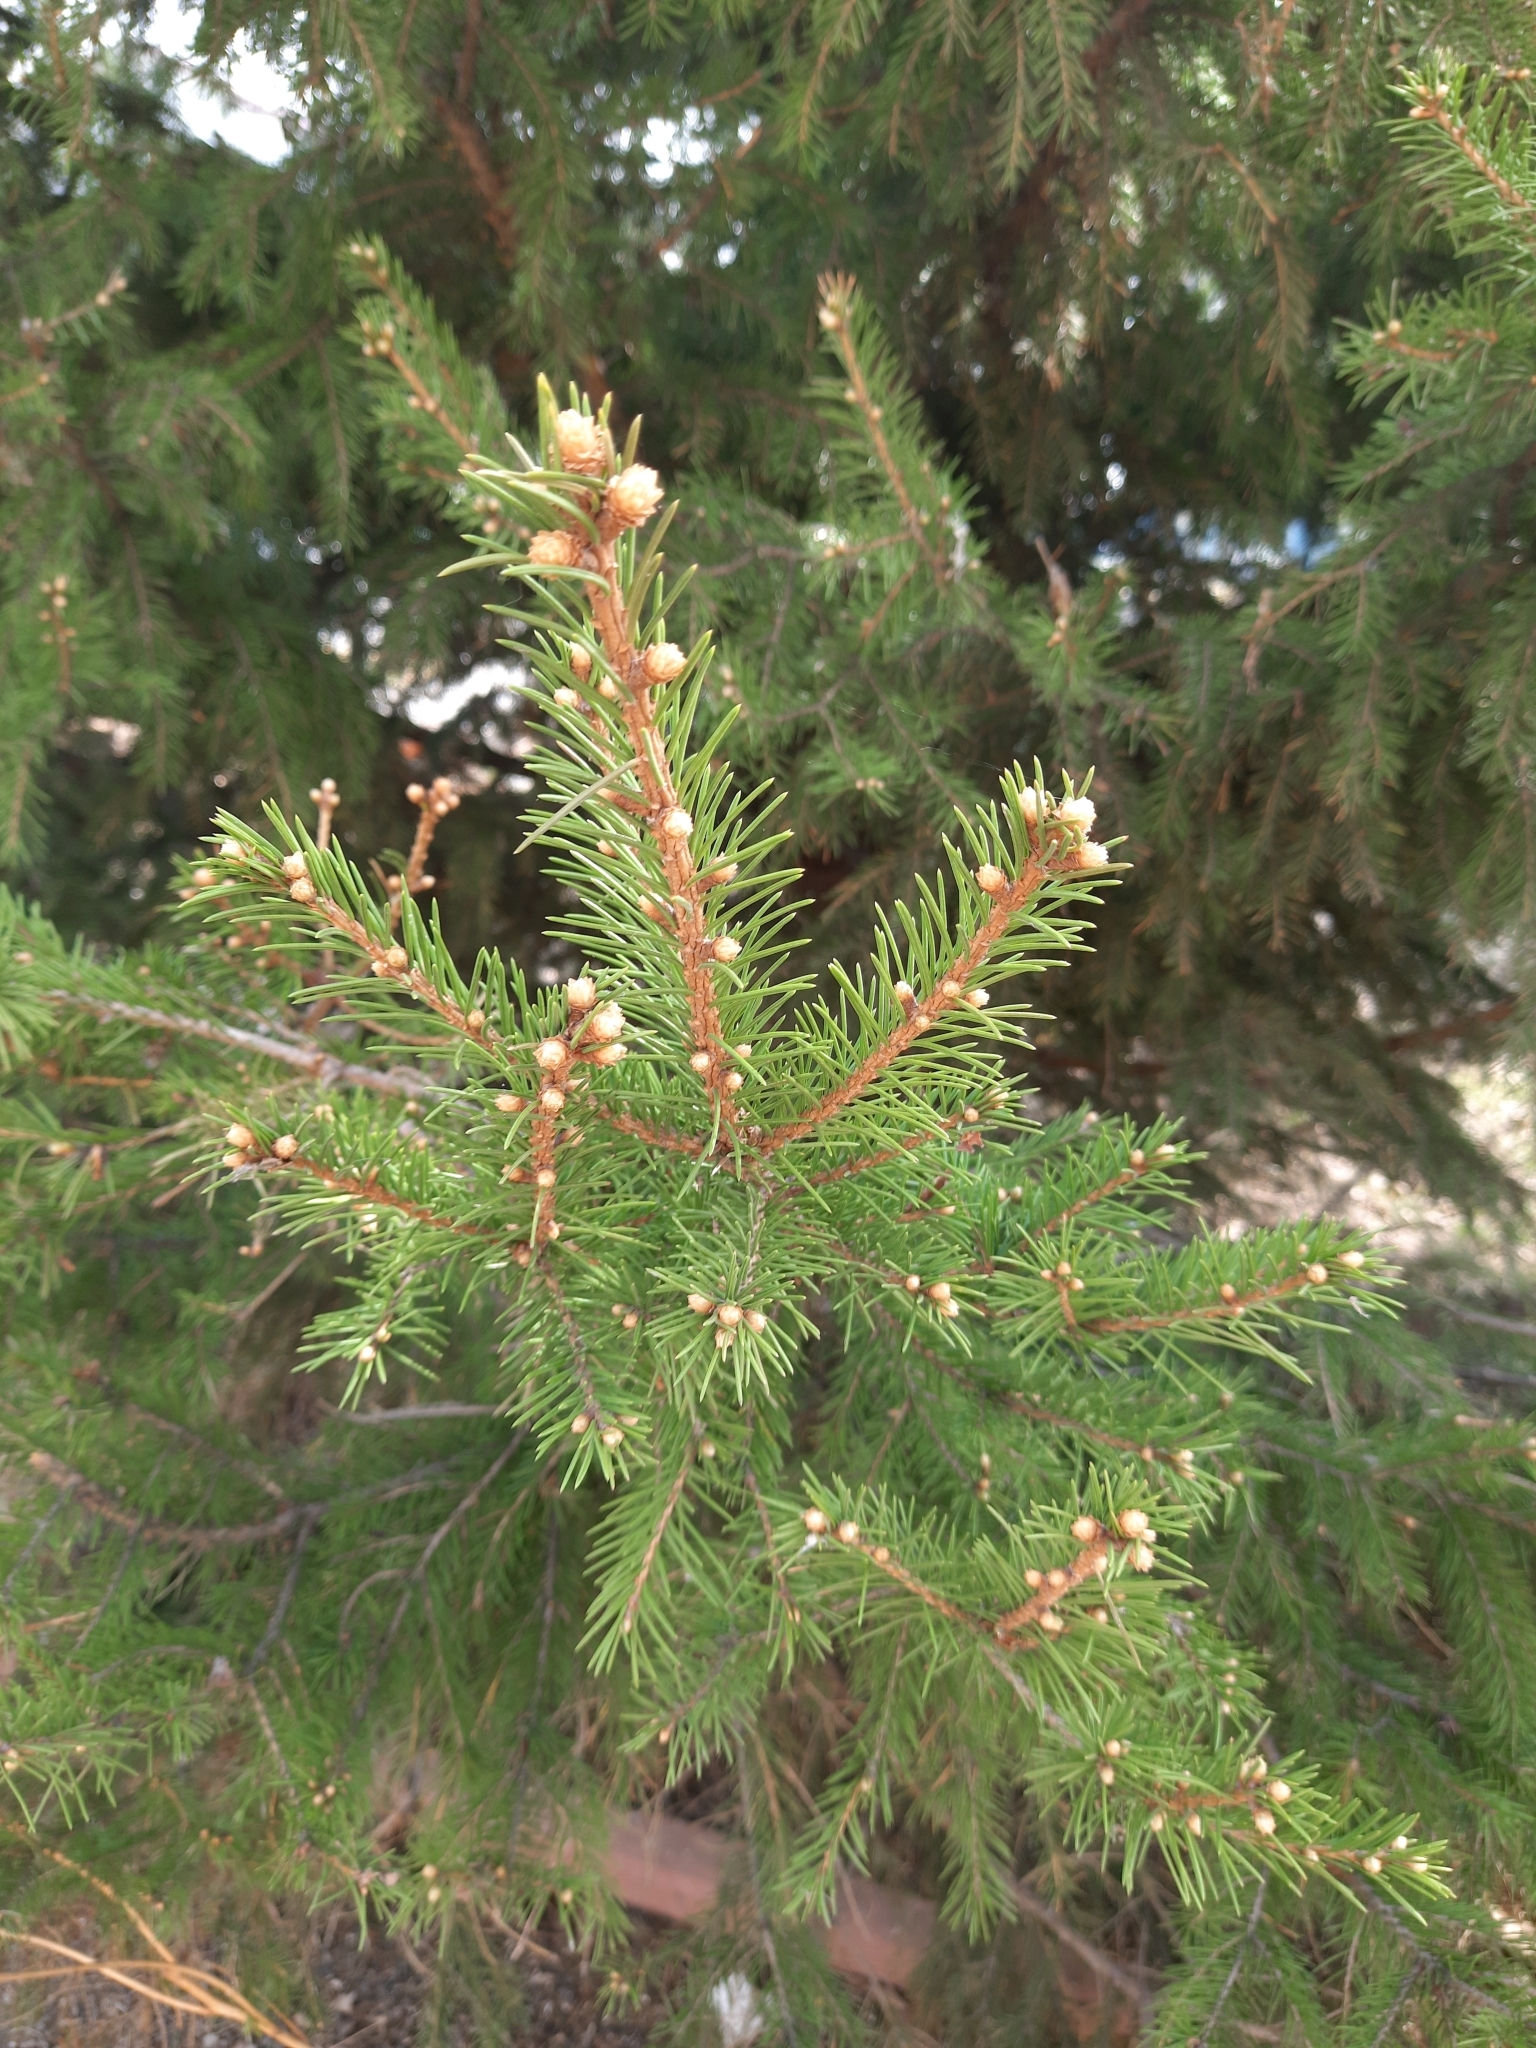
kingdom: Plantae
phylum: Tracheophyta
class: Pinopsida
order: Pinales
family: Pinaceae
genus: Picea
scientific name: Picea obovata
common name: Siberian spruce
